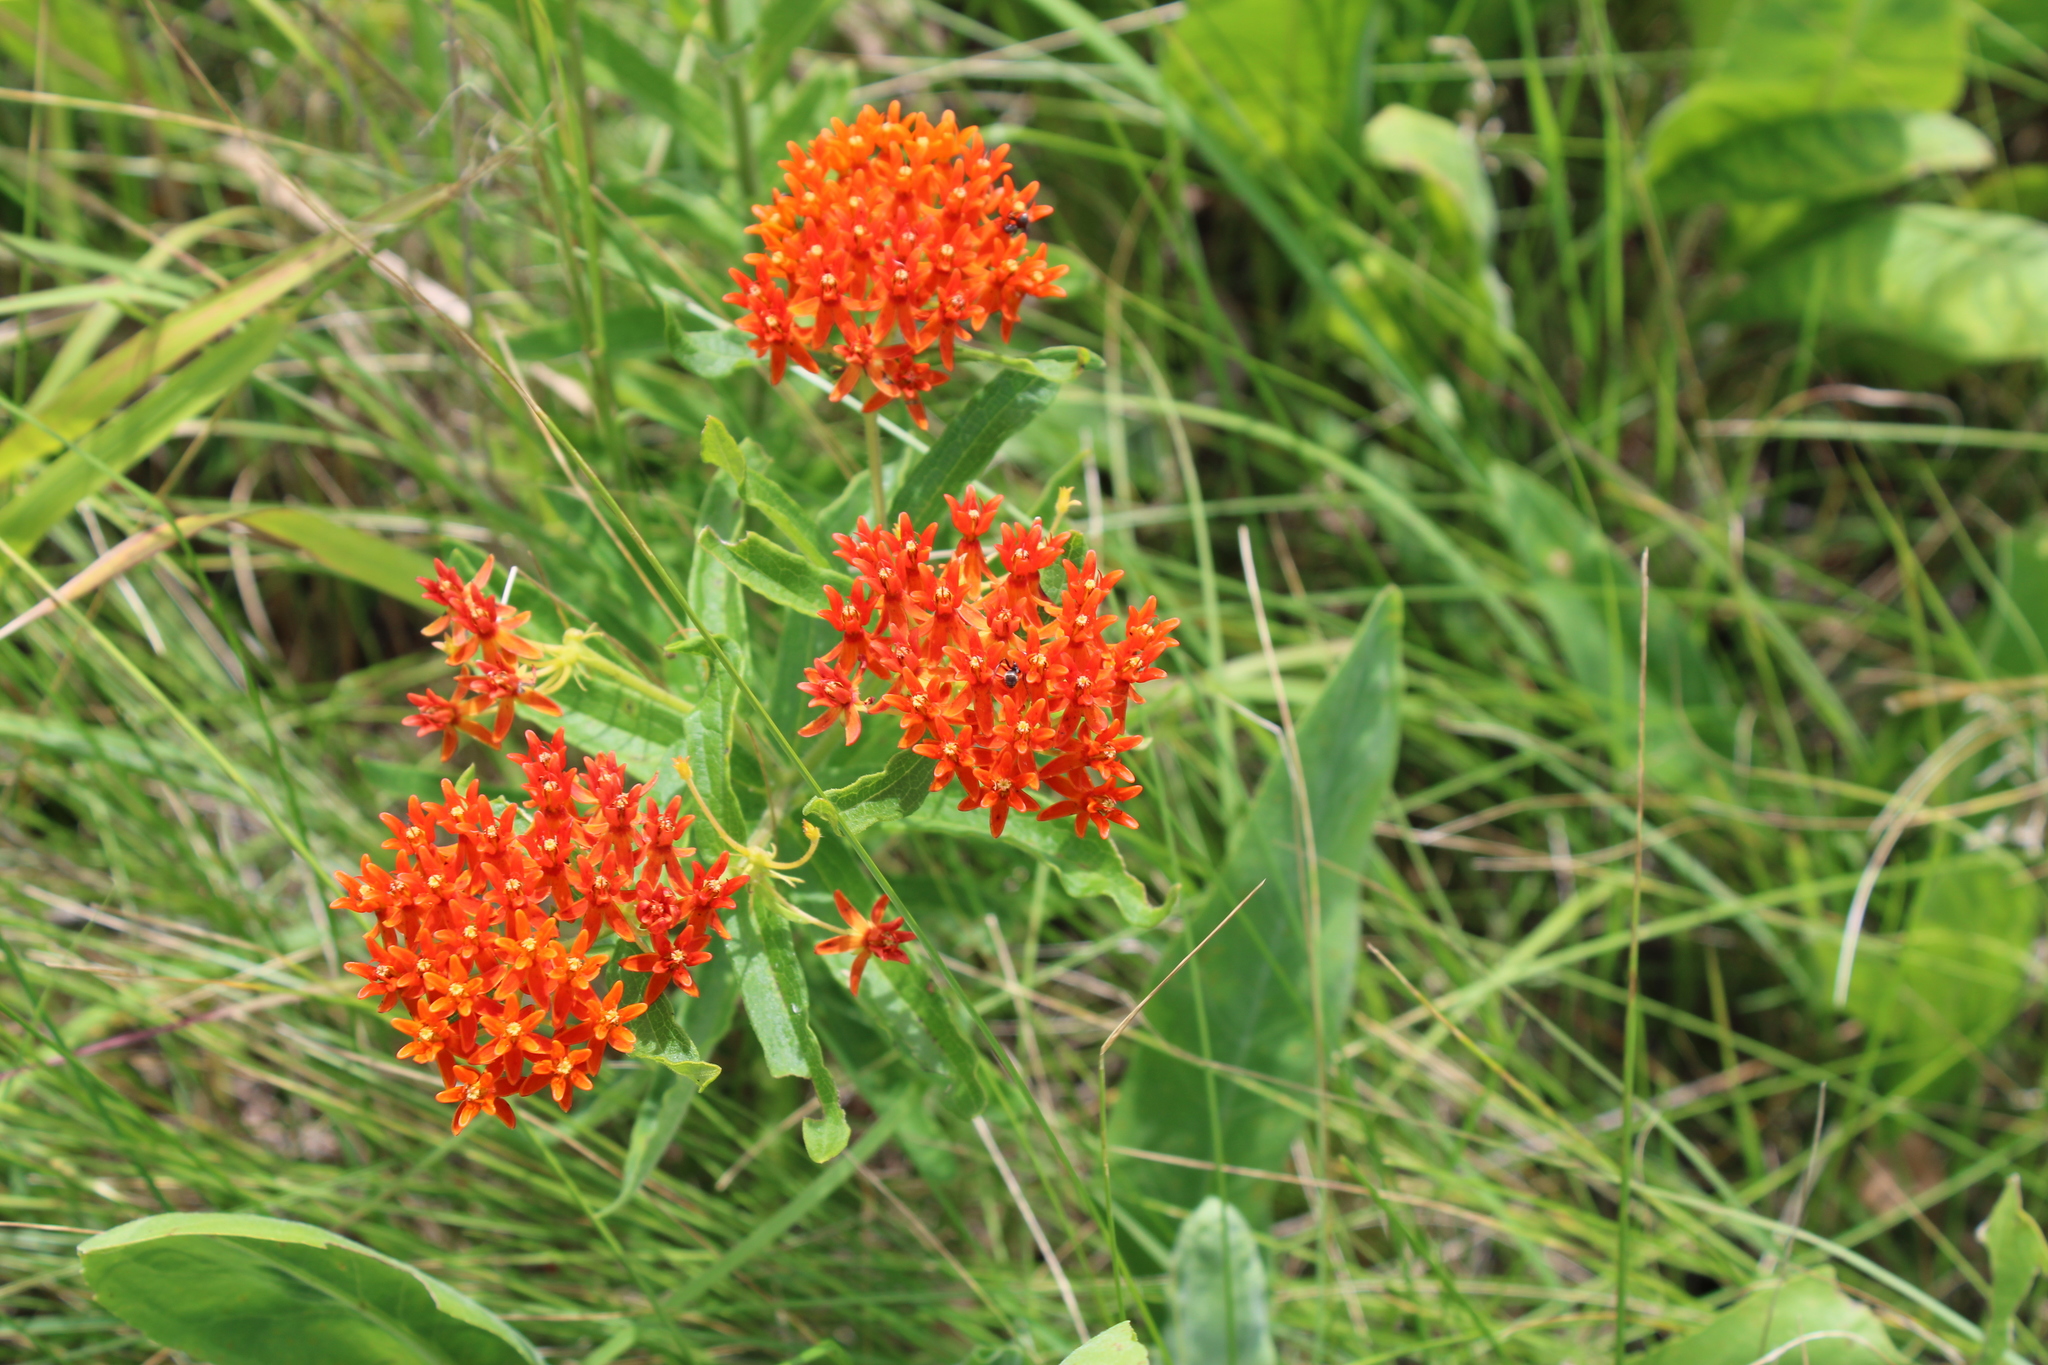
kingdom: Plantae
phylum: Tracheophyta
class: Magnoliopsida
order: Gentianales
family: Apocynaceae
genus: Asclepias
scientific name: Asclepias tuberosa
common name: Butterfly milkweed
